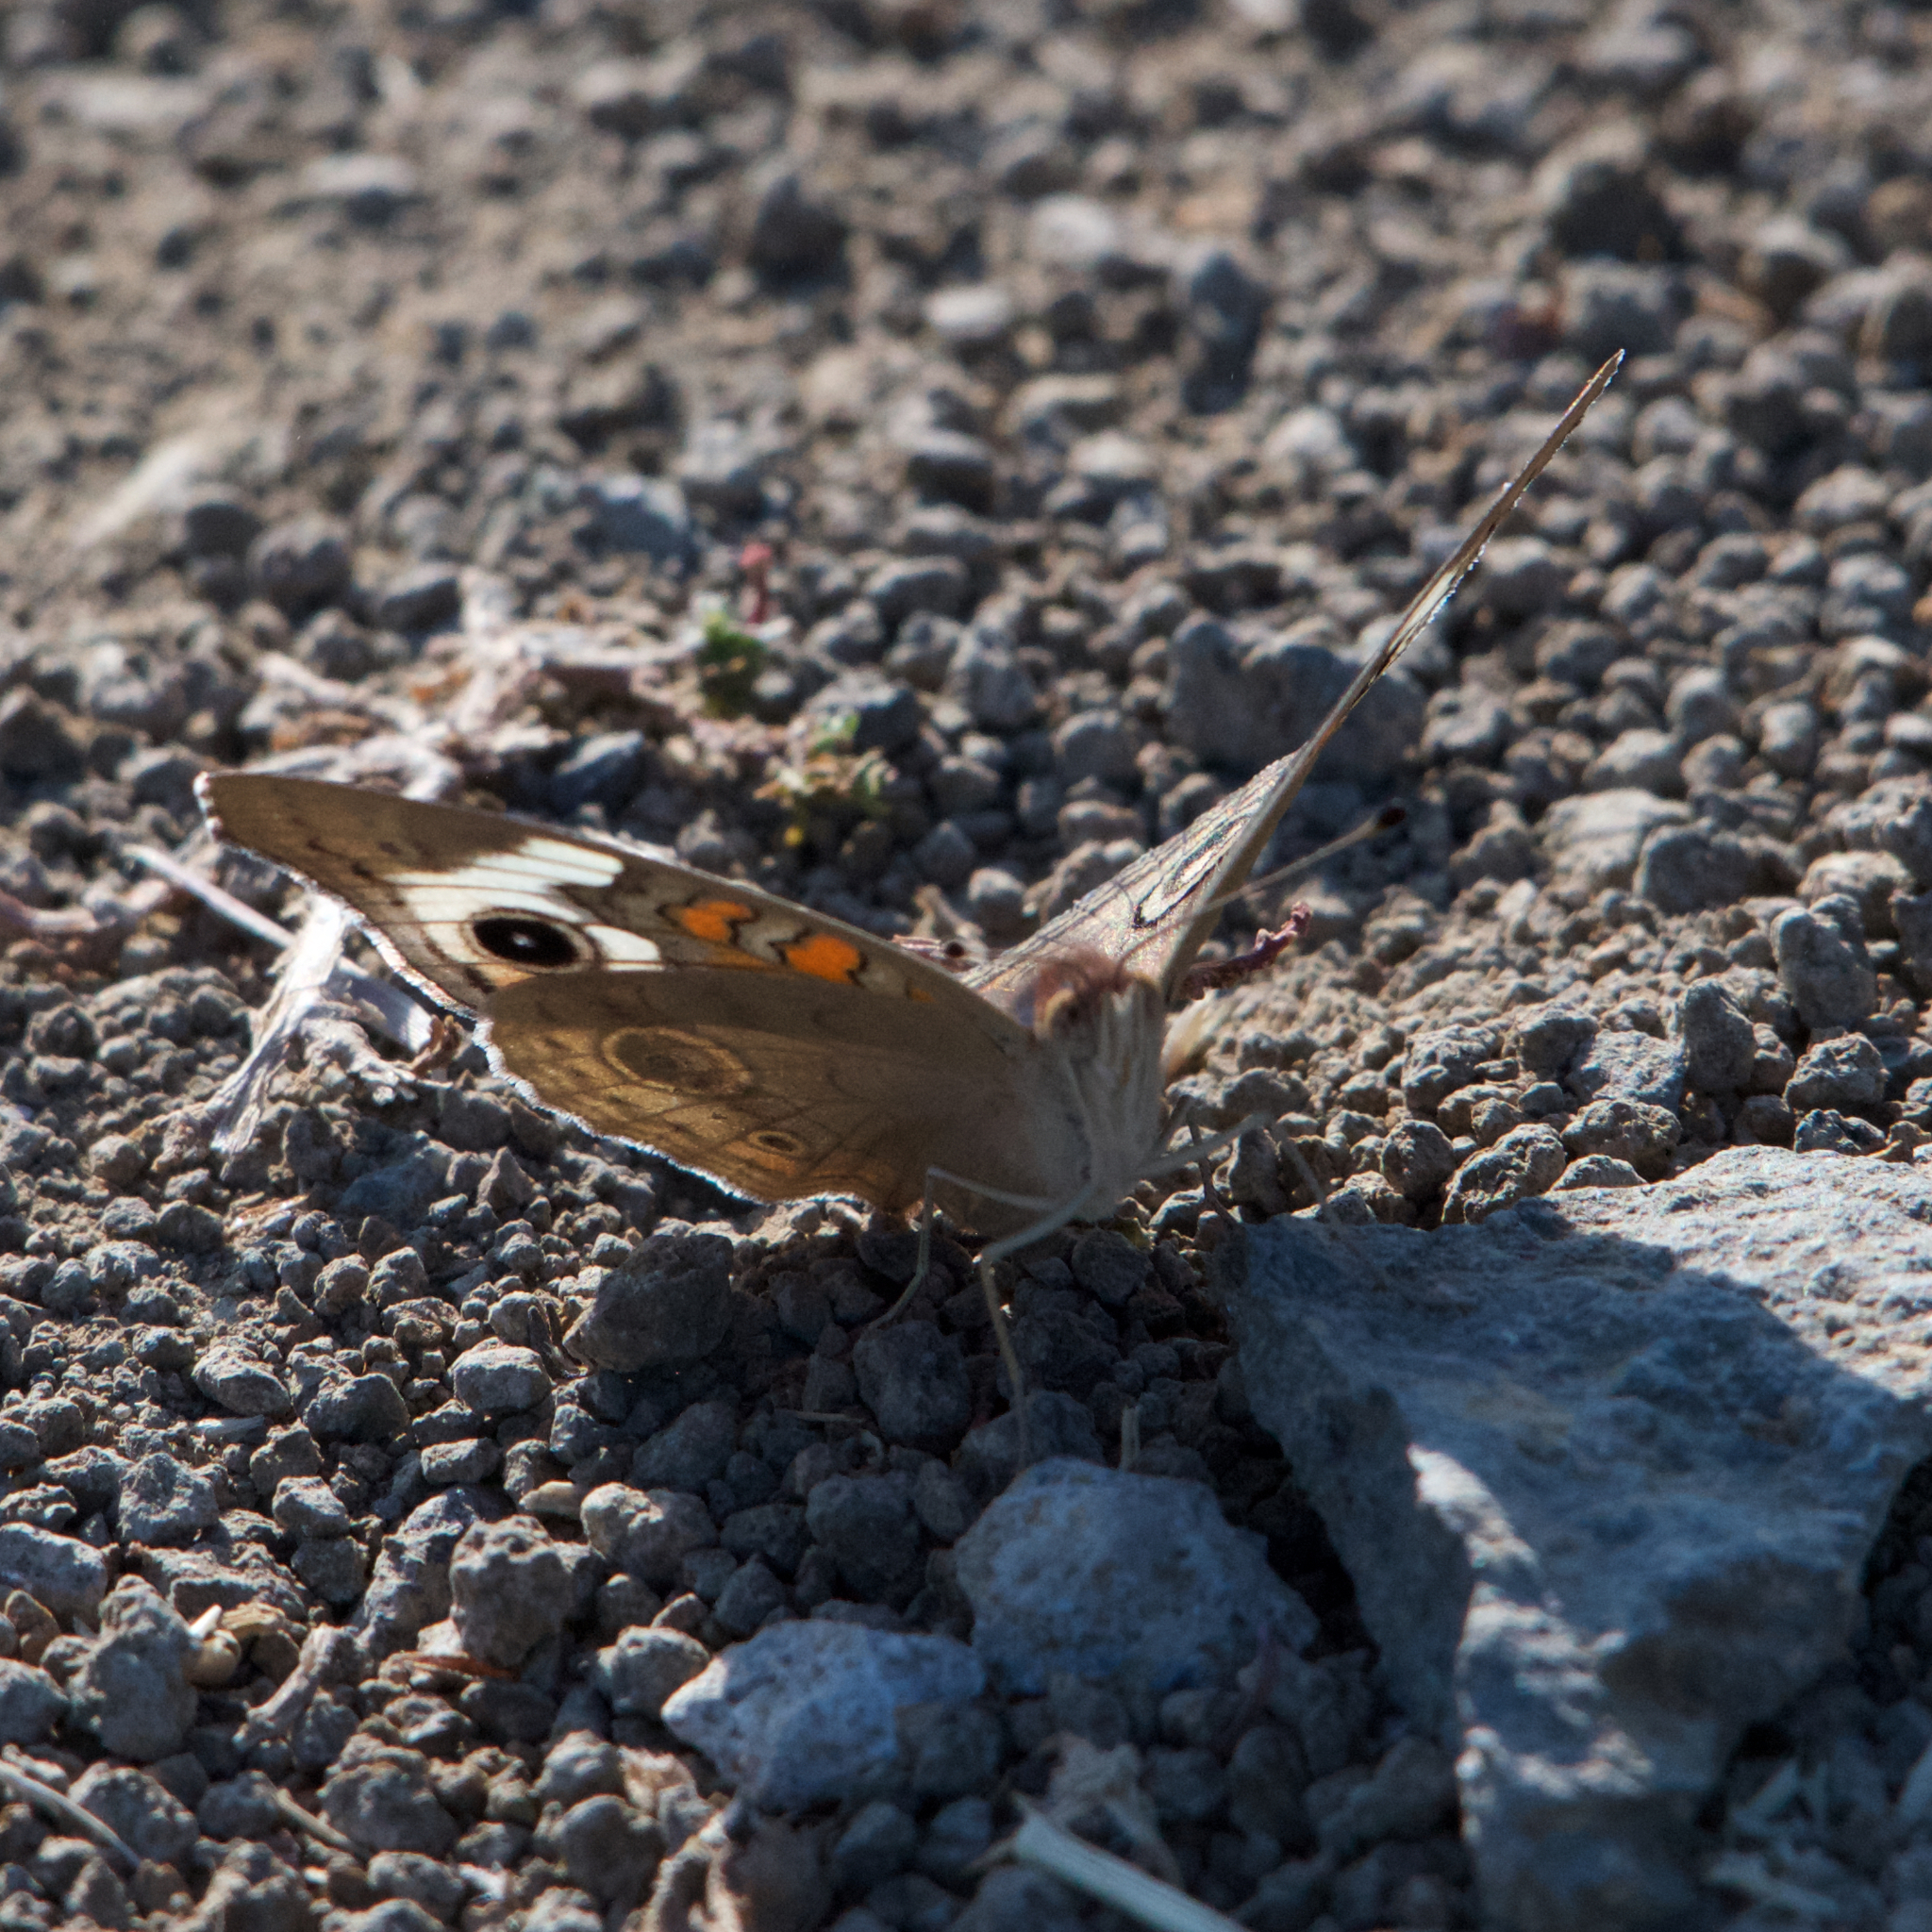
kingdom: Animalia
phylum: Arthropoda
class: Insecta
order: Lepidoptera
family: Nymphalidae
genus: Junonia
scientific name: Junonia grisea
